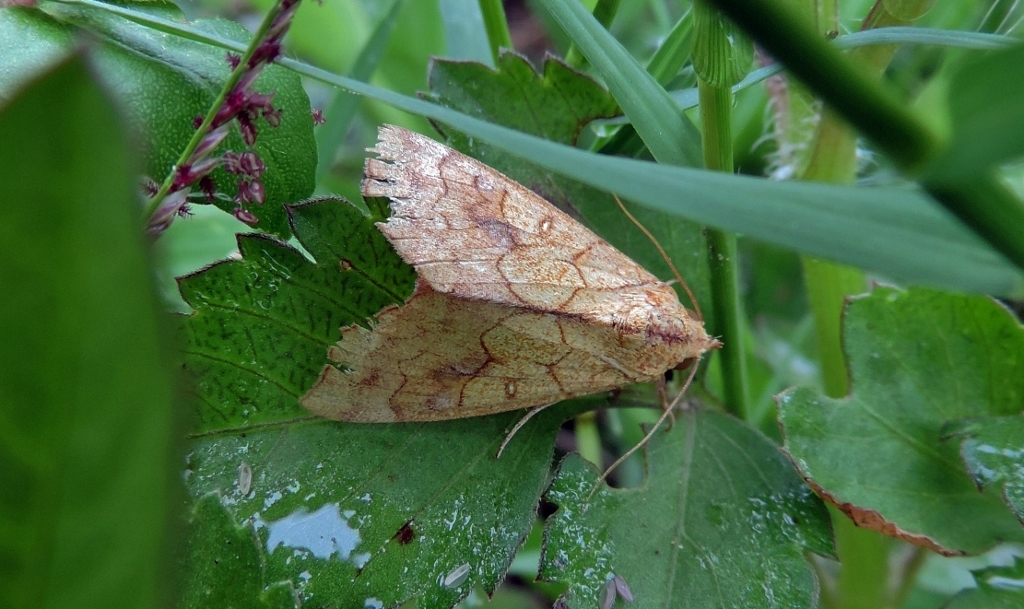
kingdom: Animalia
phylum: Arthropoda
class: Insecta
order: Lepidoptera
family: Erebidae
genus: Anomis
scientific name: Anomis flava
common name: Moth
